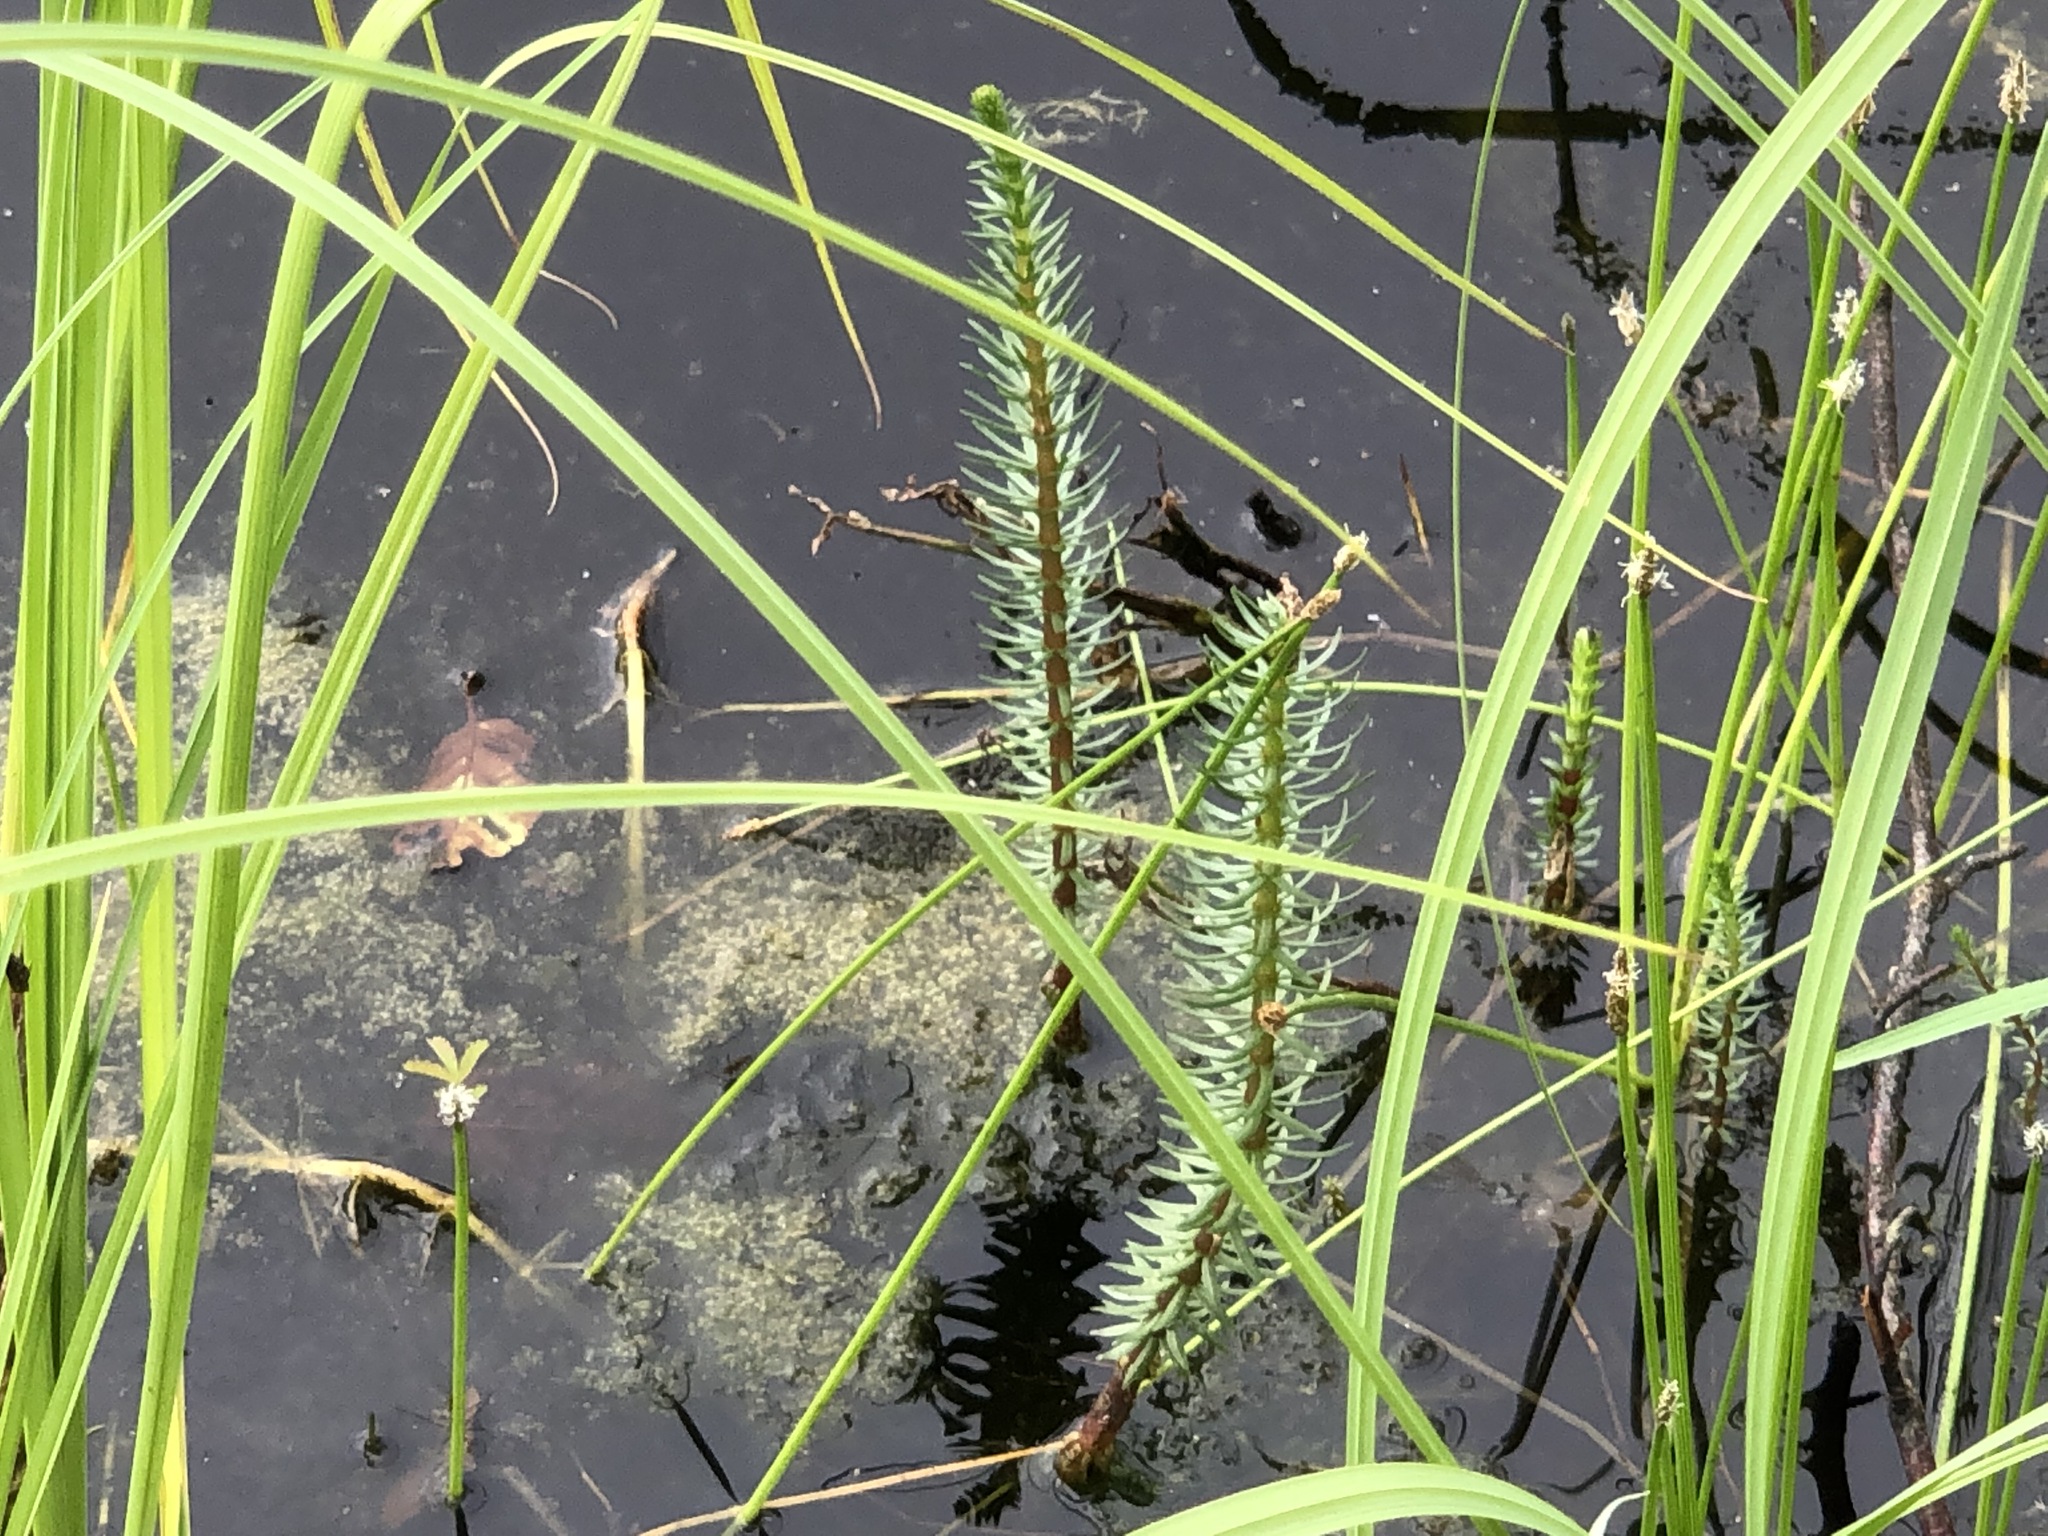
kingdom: Plantae
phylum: Tracheophyta
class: Magnoliopsida
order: Lamiales
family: Plantaginaceae
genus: Hippuris
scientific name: Hippuris vulgaris
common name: Mare's-tail
